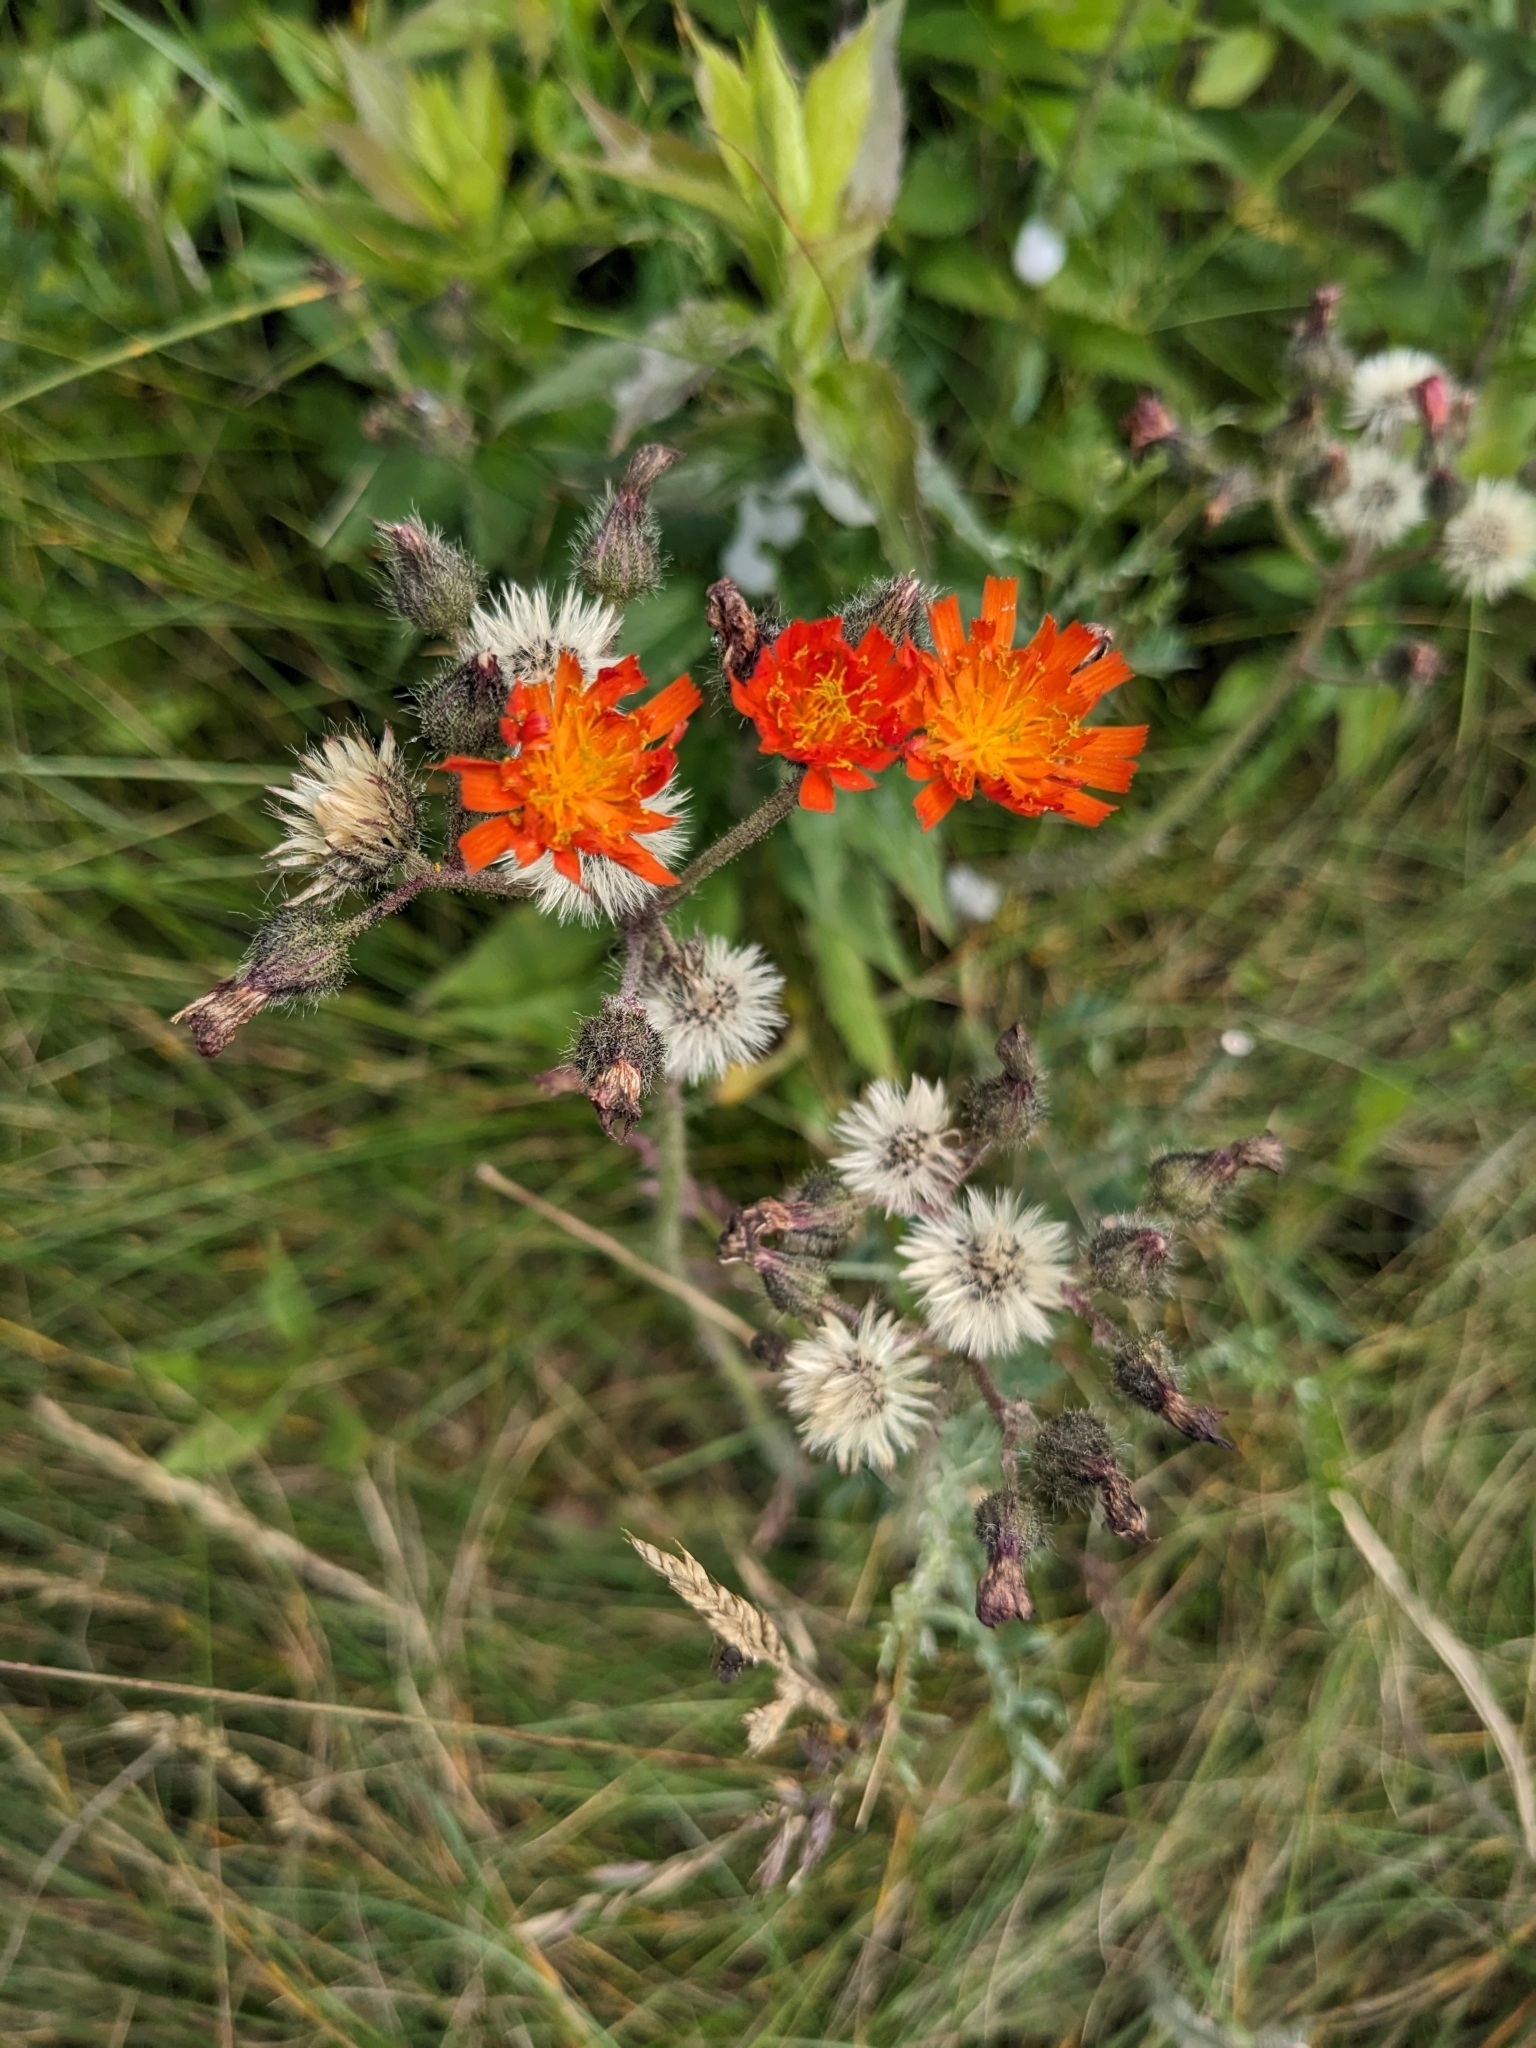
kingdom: Plantae
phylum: Tracheophyta
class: Magnoliopsida
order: Asterales
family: Asteraceae
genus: Pilosella
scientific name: Pilosella aurantiaca
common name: Fox-and-cubs
